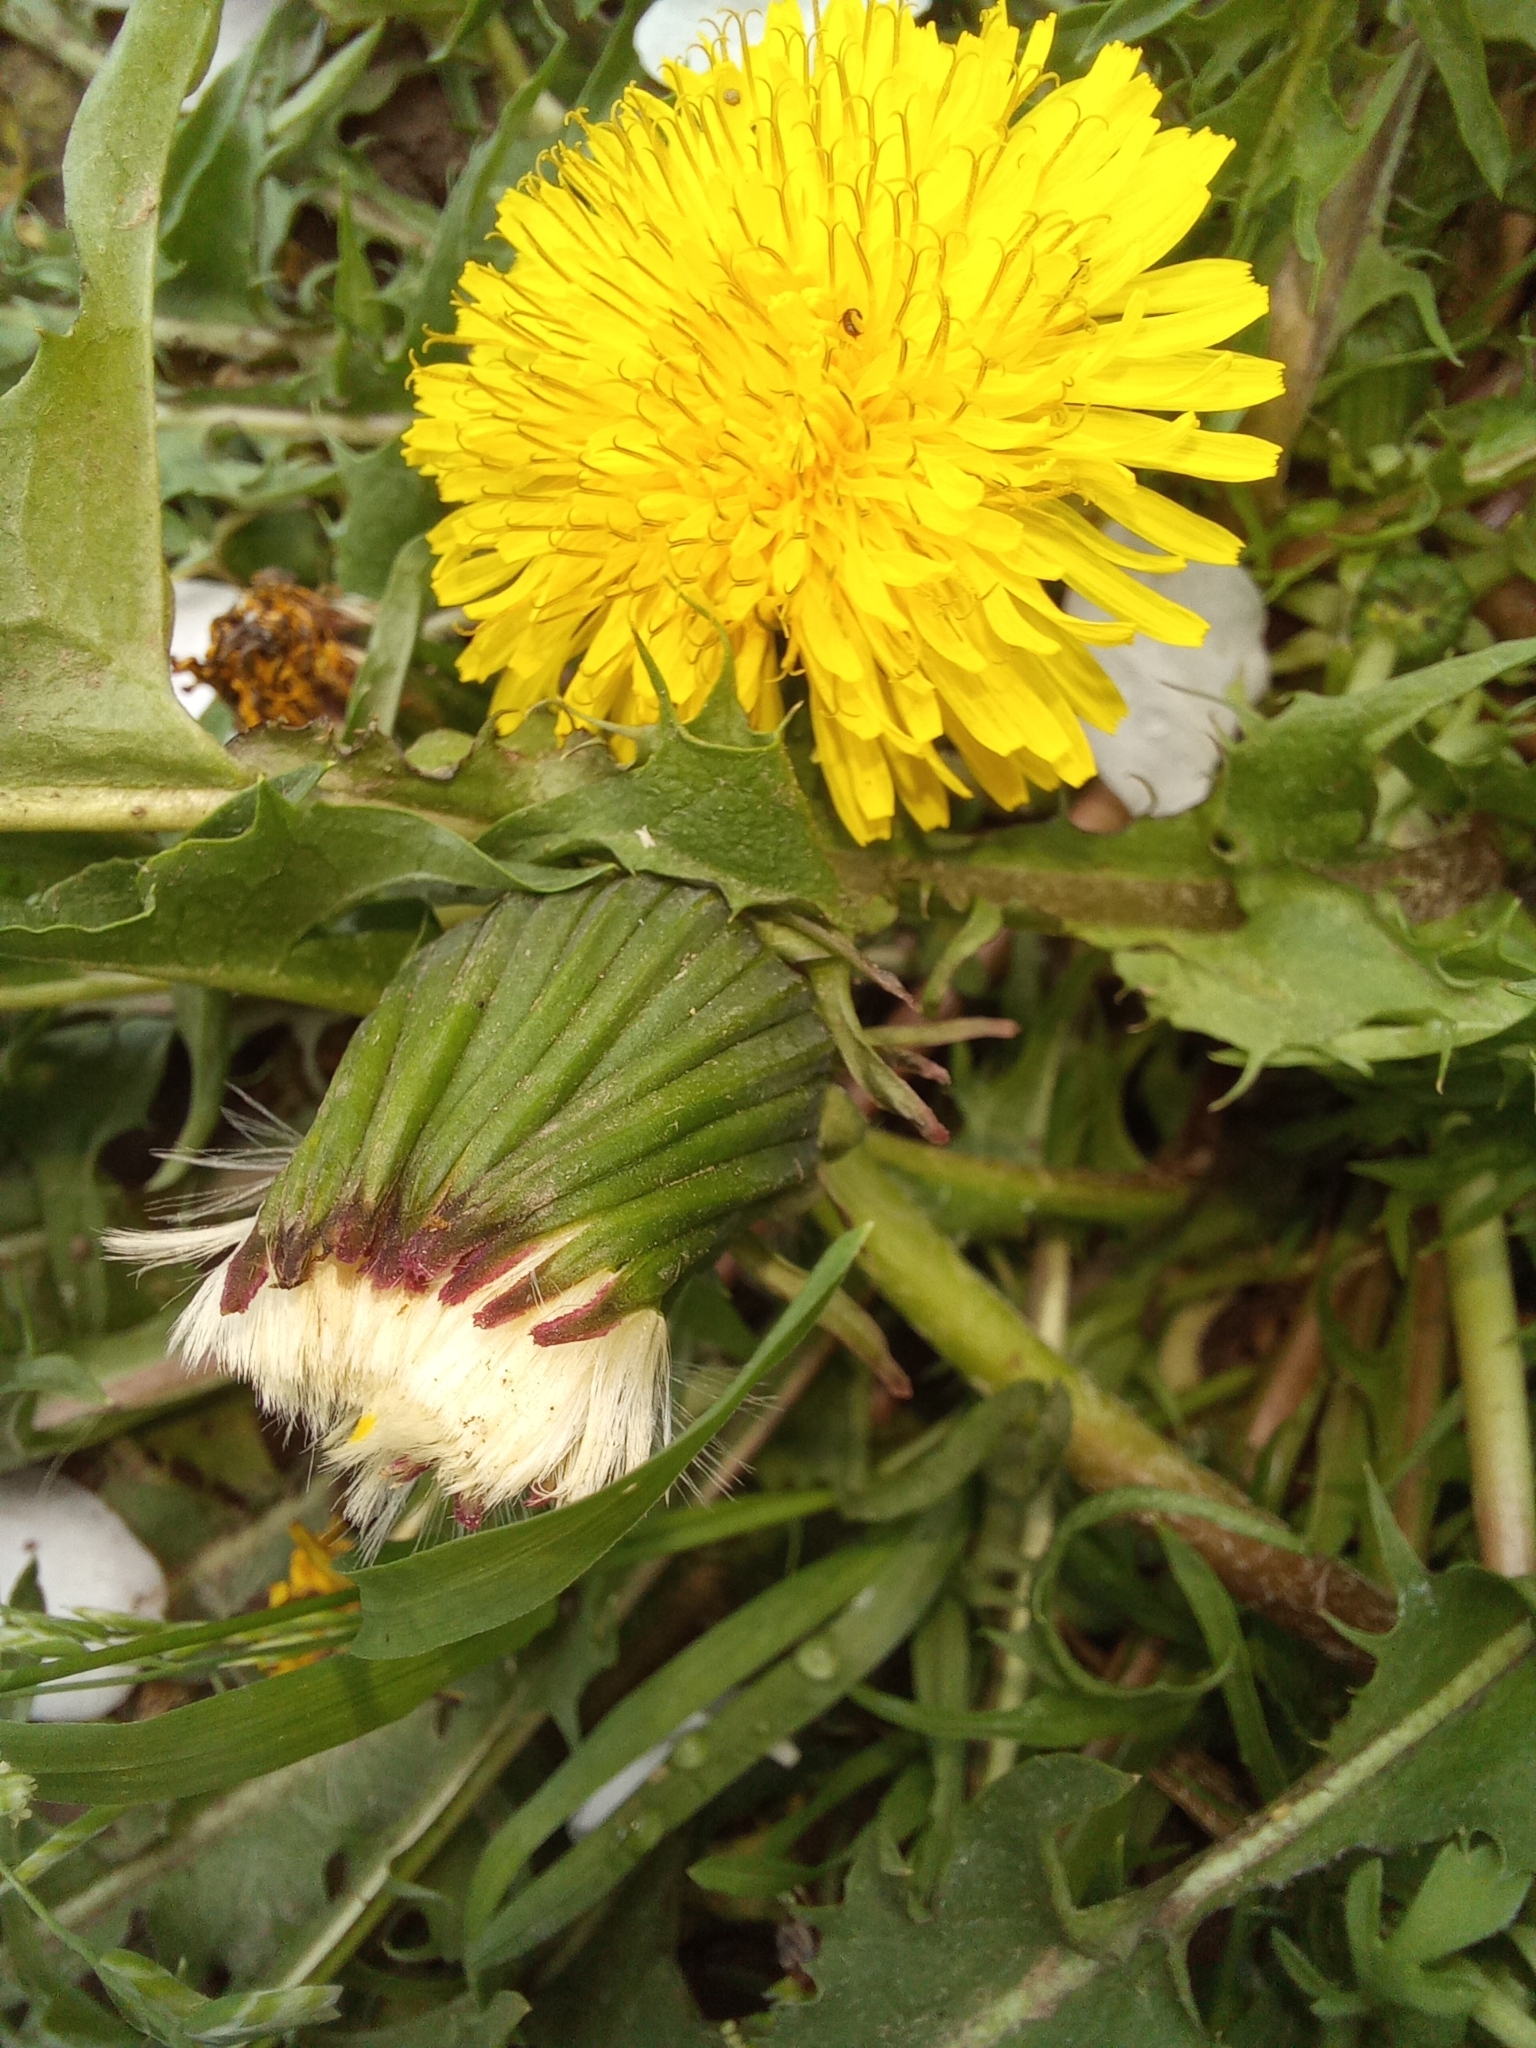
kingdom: Plantae
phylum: Tracheophyta
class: Magnoliopsida
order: Asterales
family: Asteraceae
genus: Taraxacum
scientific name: Taraxacum officinale
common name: Common dandelion
